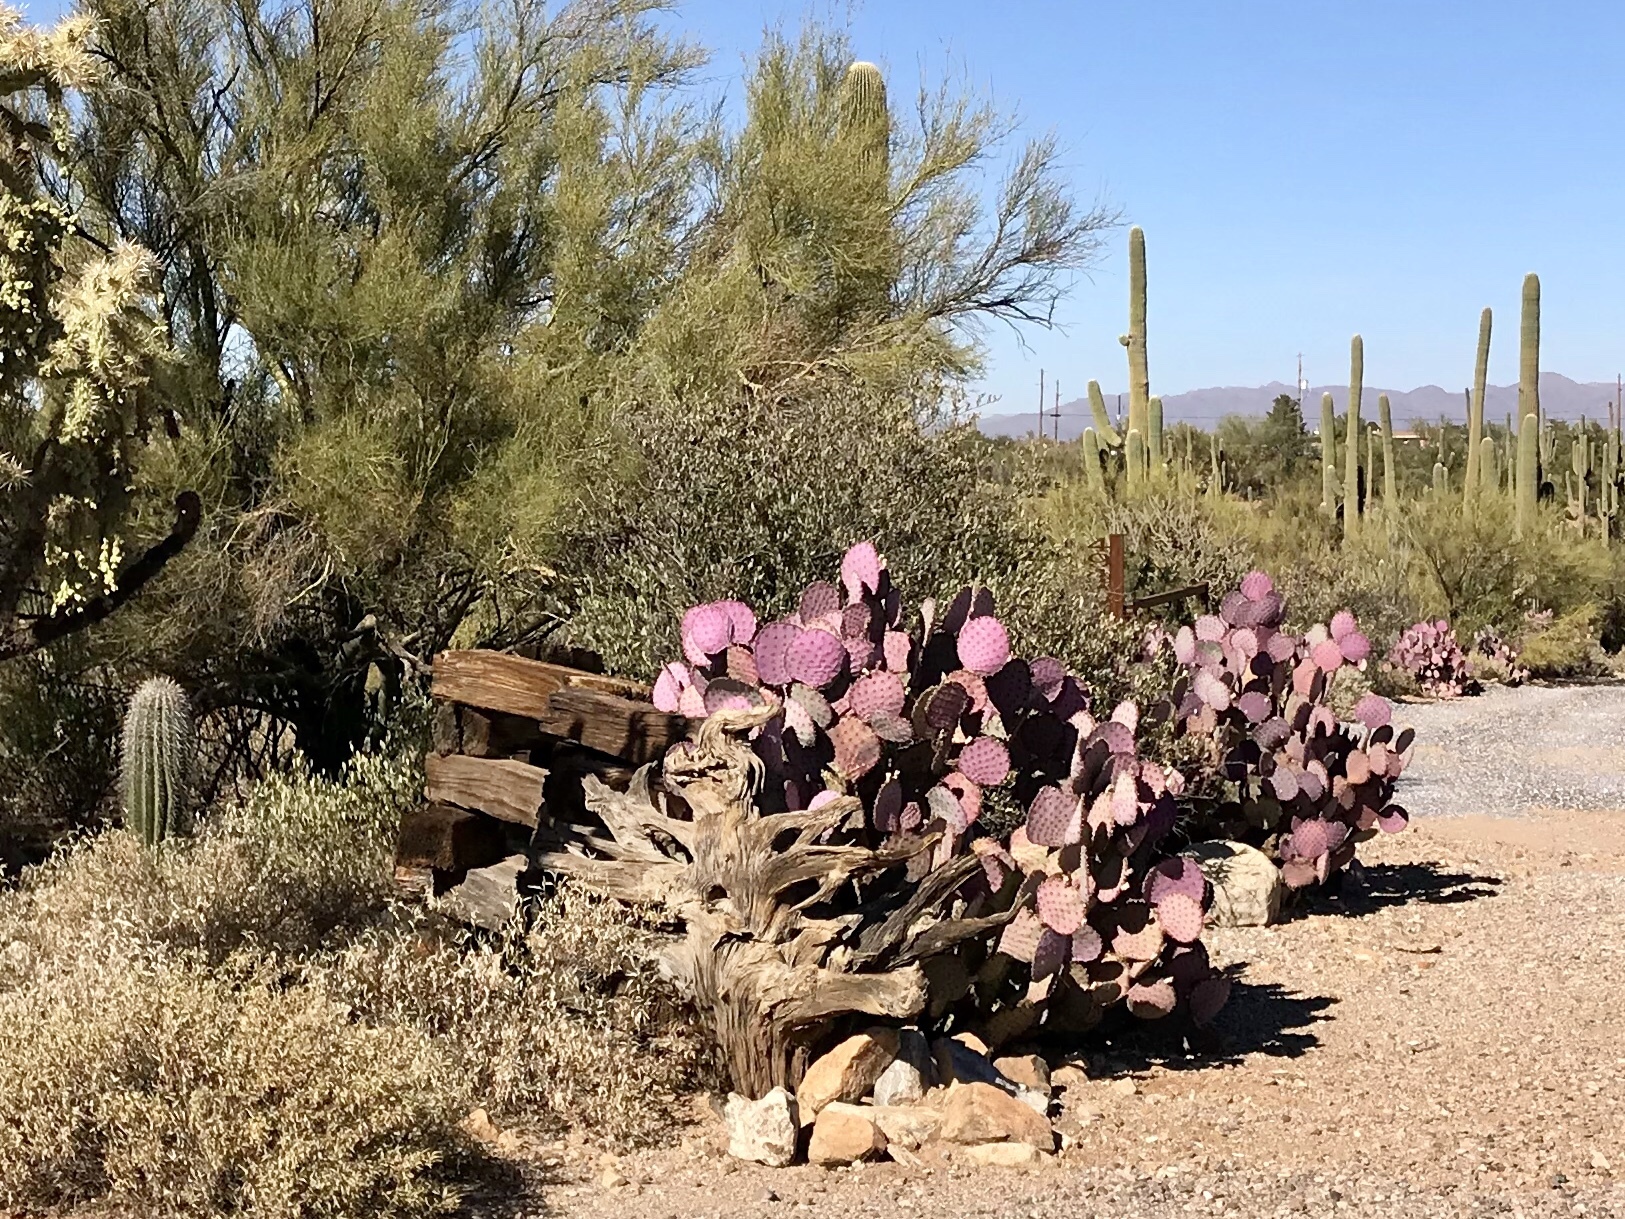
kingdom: Plantae
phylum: Tracheophyta
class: Magnoliopsida
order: Caryophyllales
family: Cactaceae
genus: Opuntia
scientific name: Opuntia gosseliniana
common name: Violet prickly-pear
